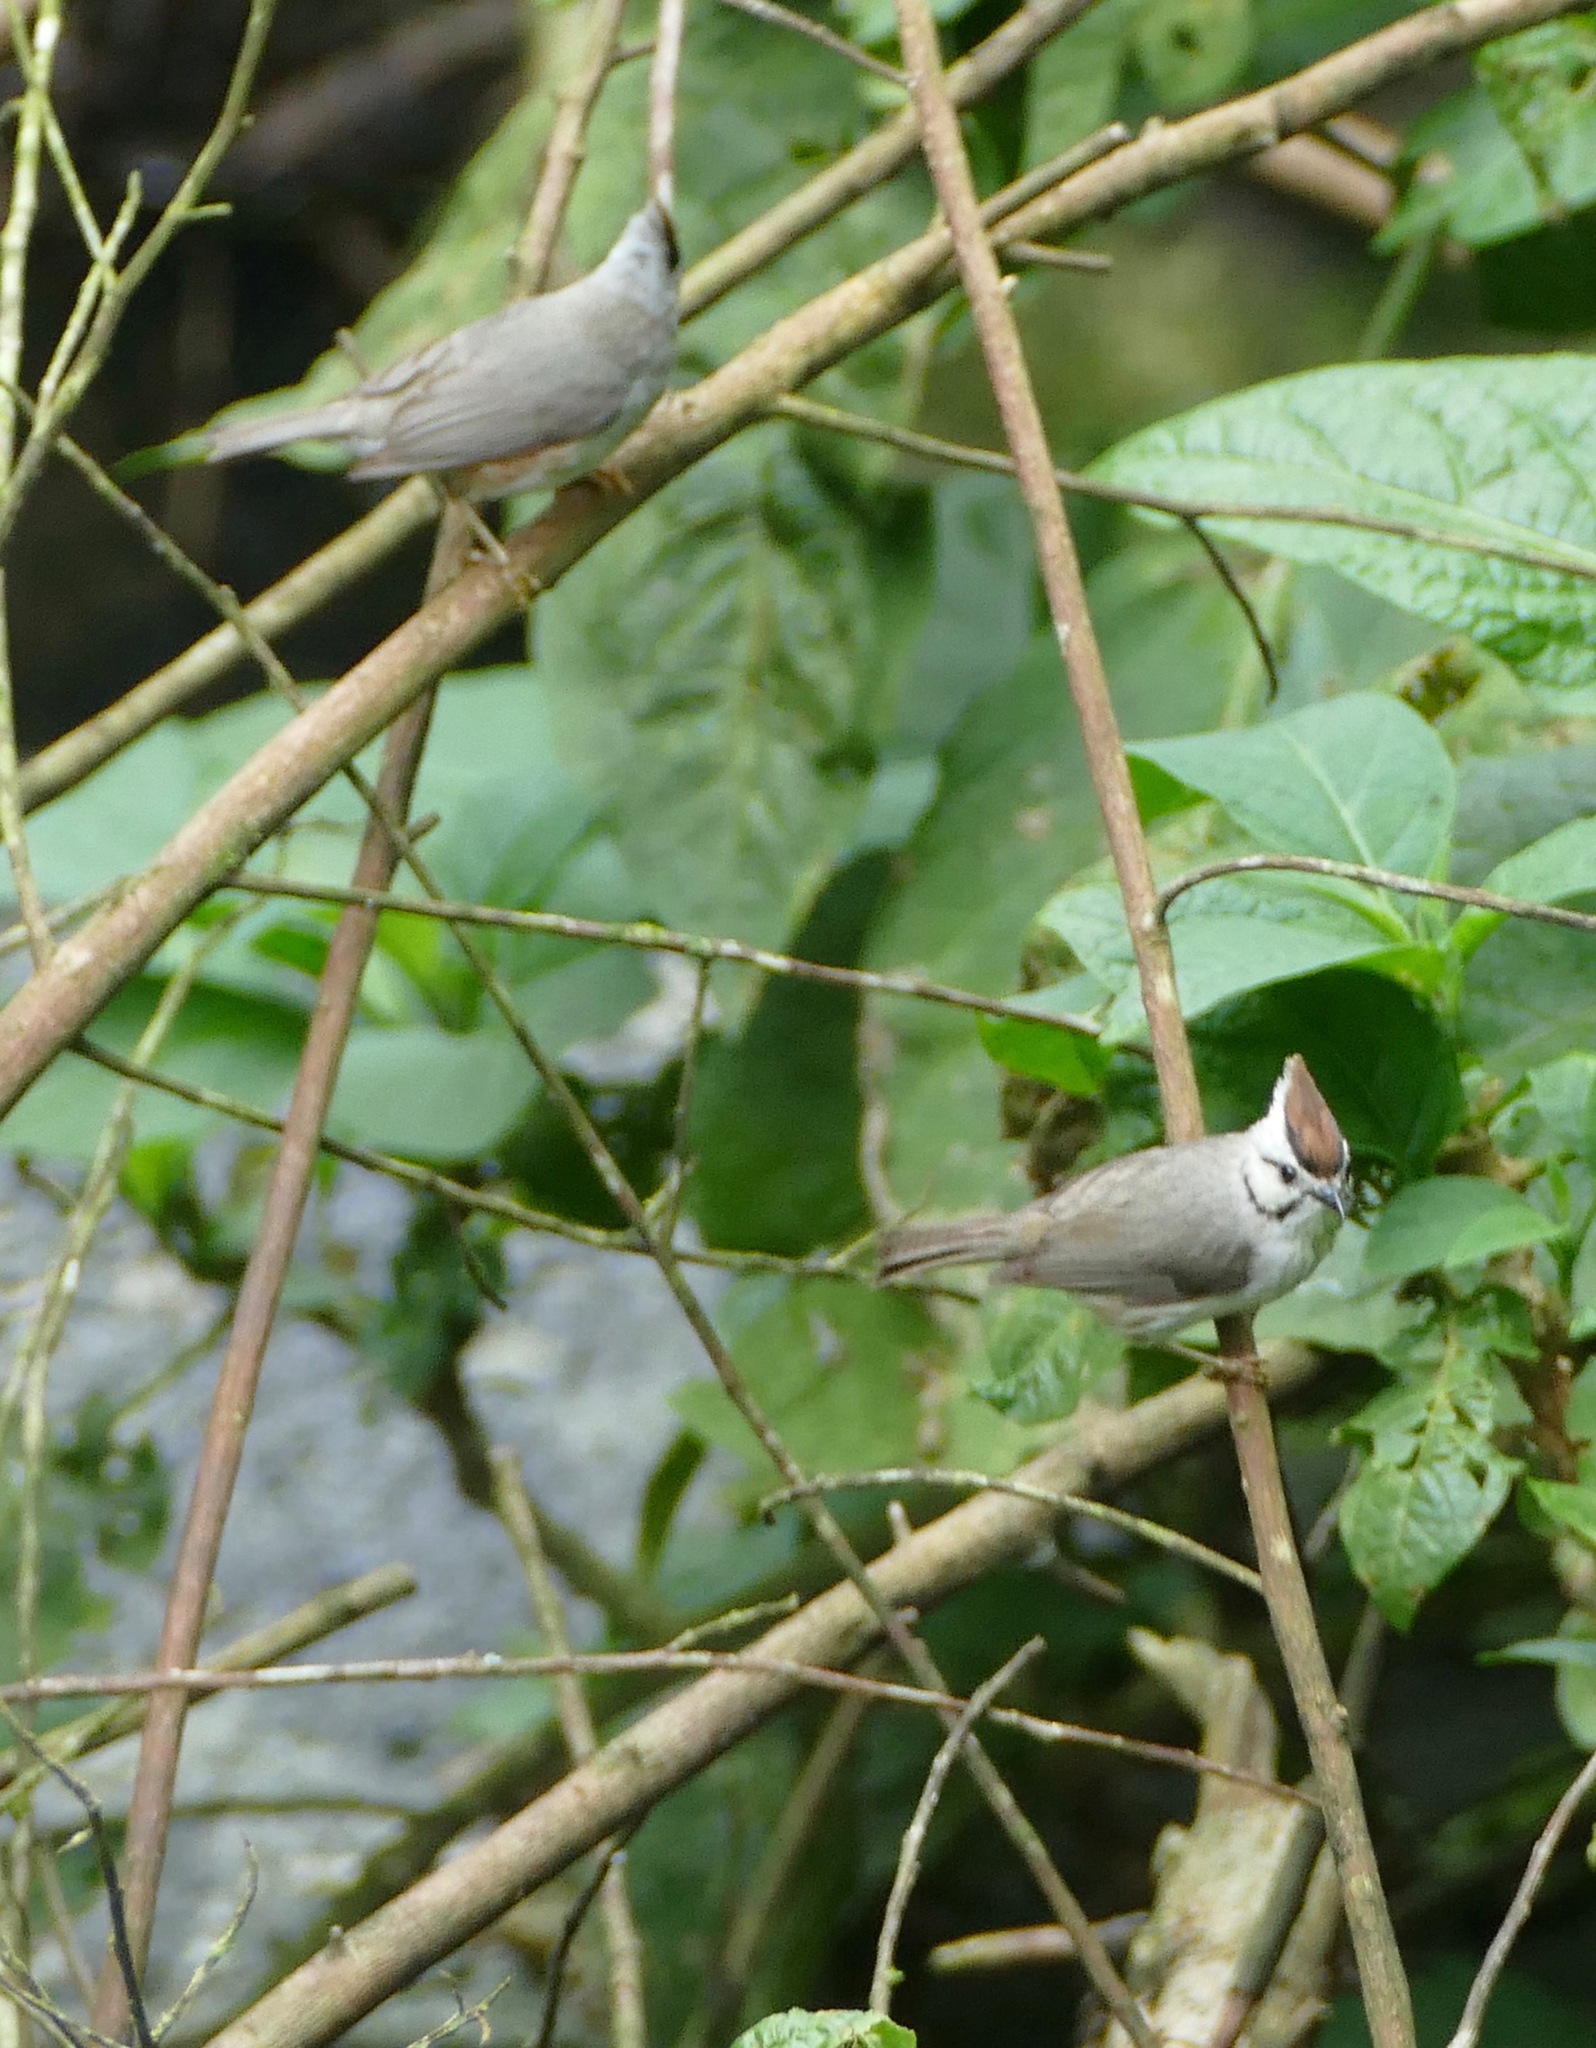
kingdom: Animalia
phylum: Chordata
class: Aves
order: Passeriformes
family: Zosteropidae
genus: Yuhina
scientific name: Yuhina brunneiceps
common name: Taiwan yuhina
